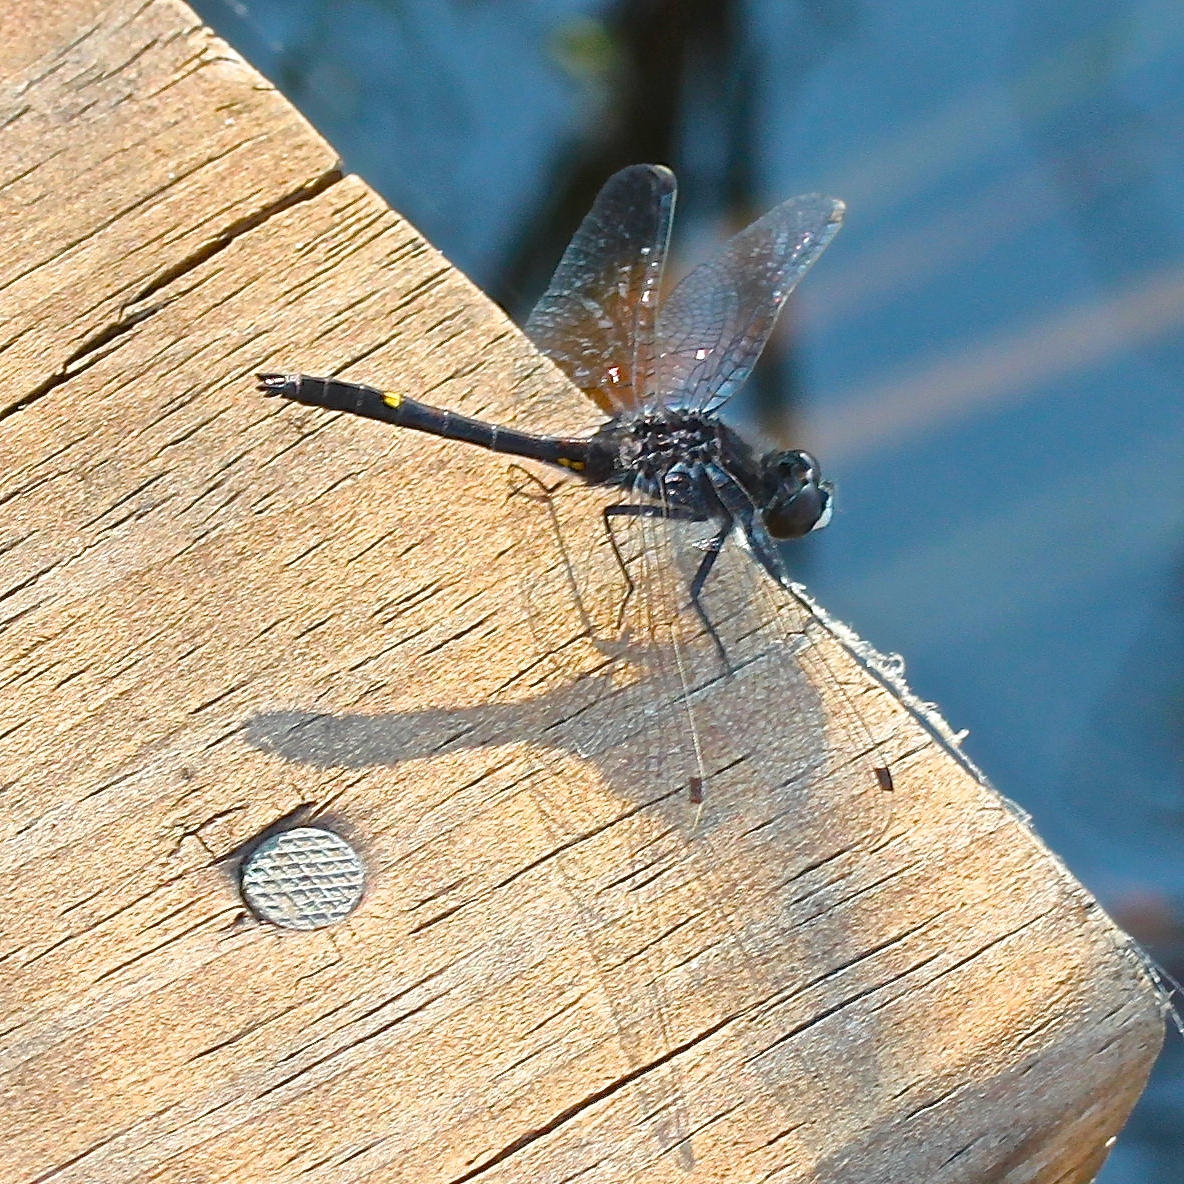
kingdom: Animalia
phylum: Arthropoda
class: Insecta
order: Odonata
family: Libellulidae
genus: Leucorrhinia
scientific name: Leucorrhinia intacta
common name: Dot-tailed whiteface
